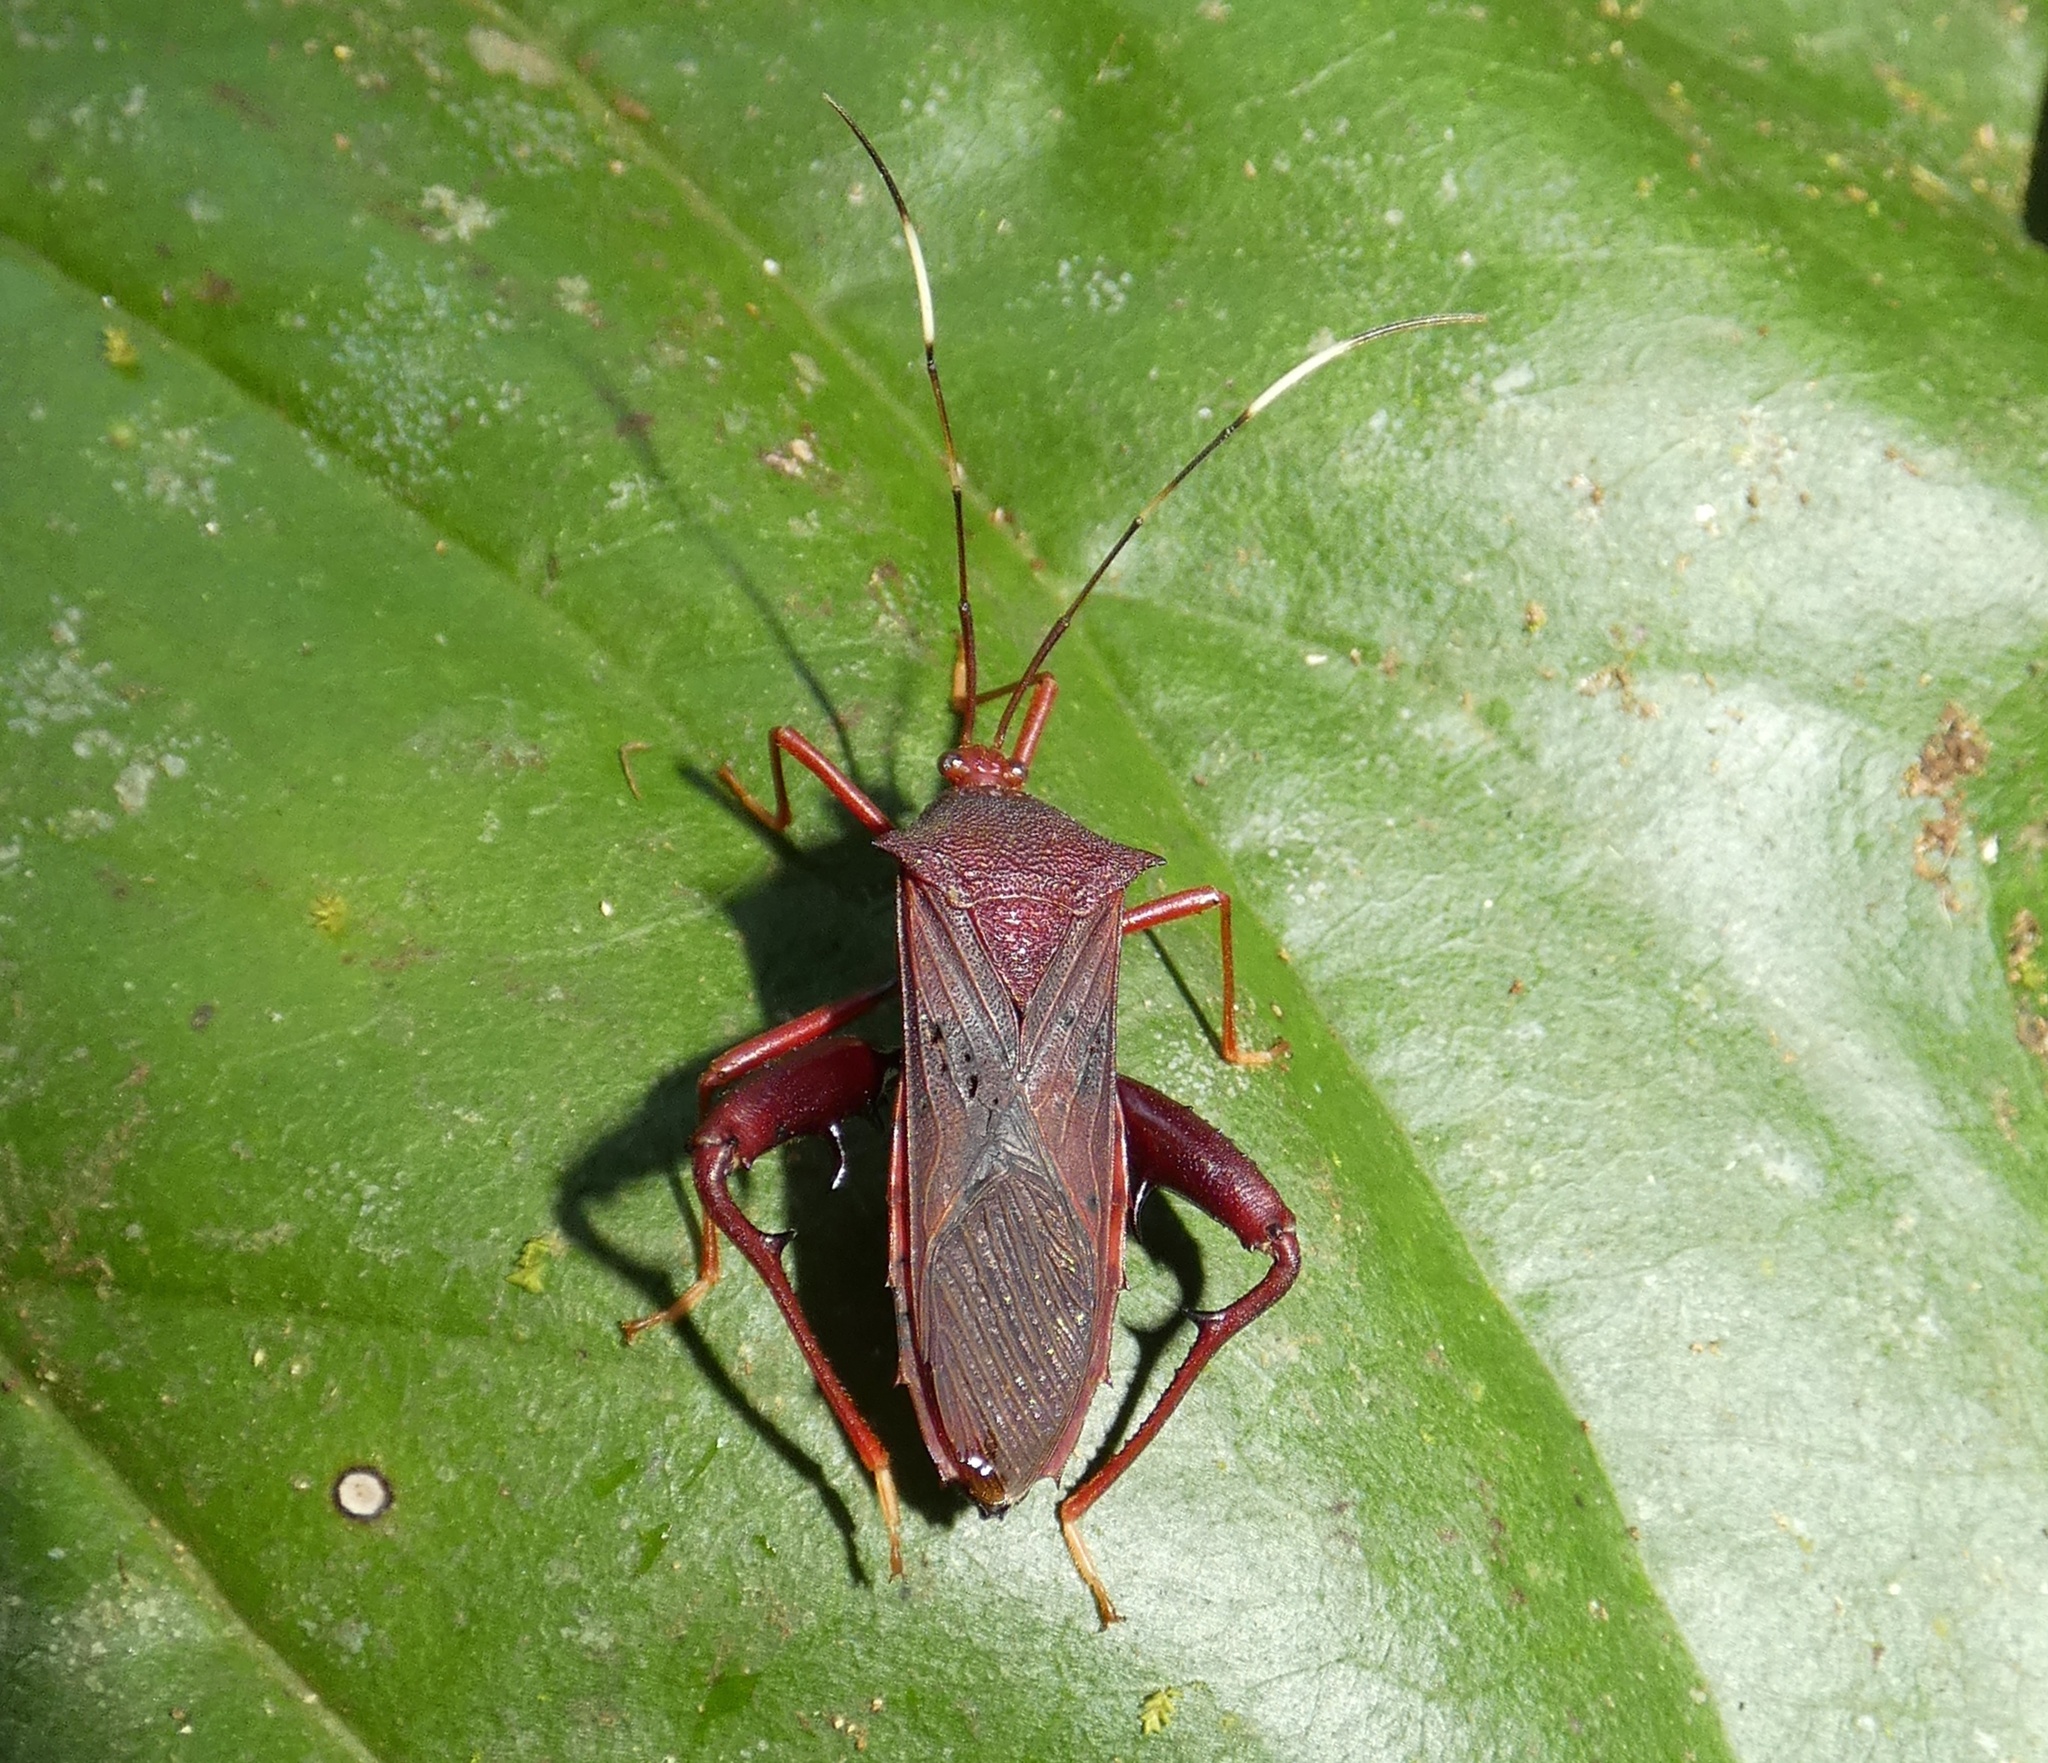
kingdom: Animalia
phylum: Arthropoda
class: Insecta
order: Hemiptera
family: Coreidae
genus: Nematopus
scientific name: Nematopus cribratus
